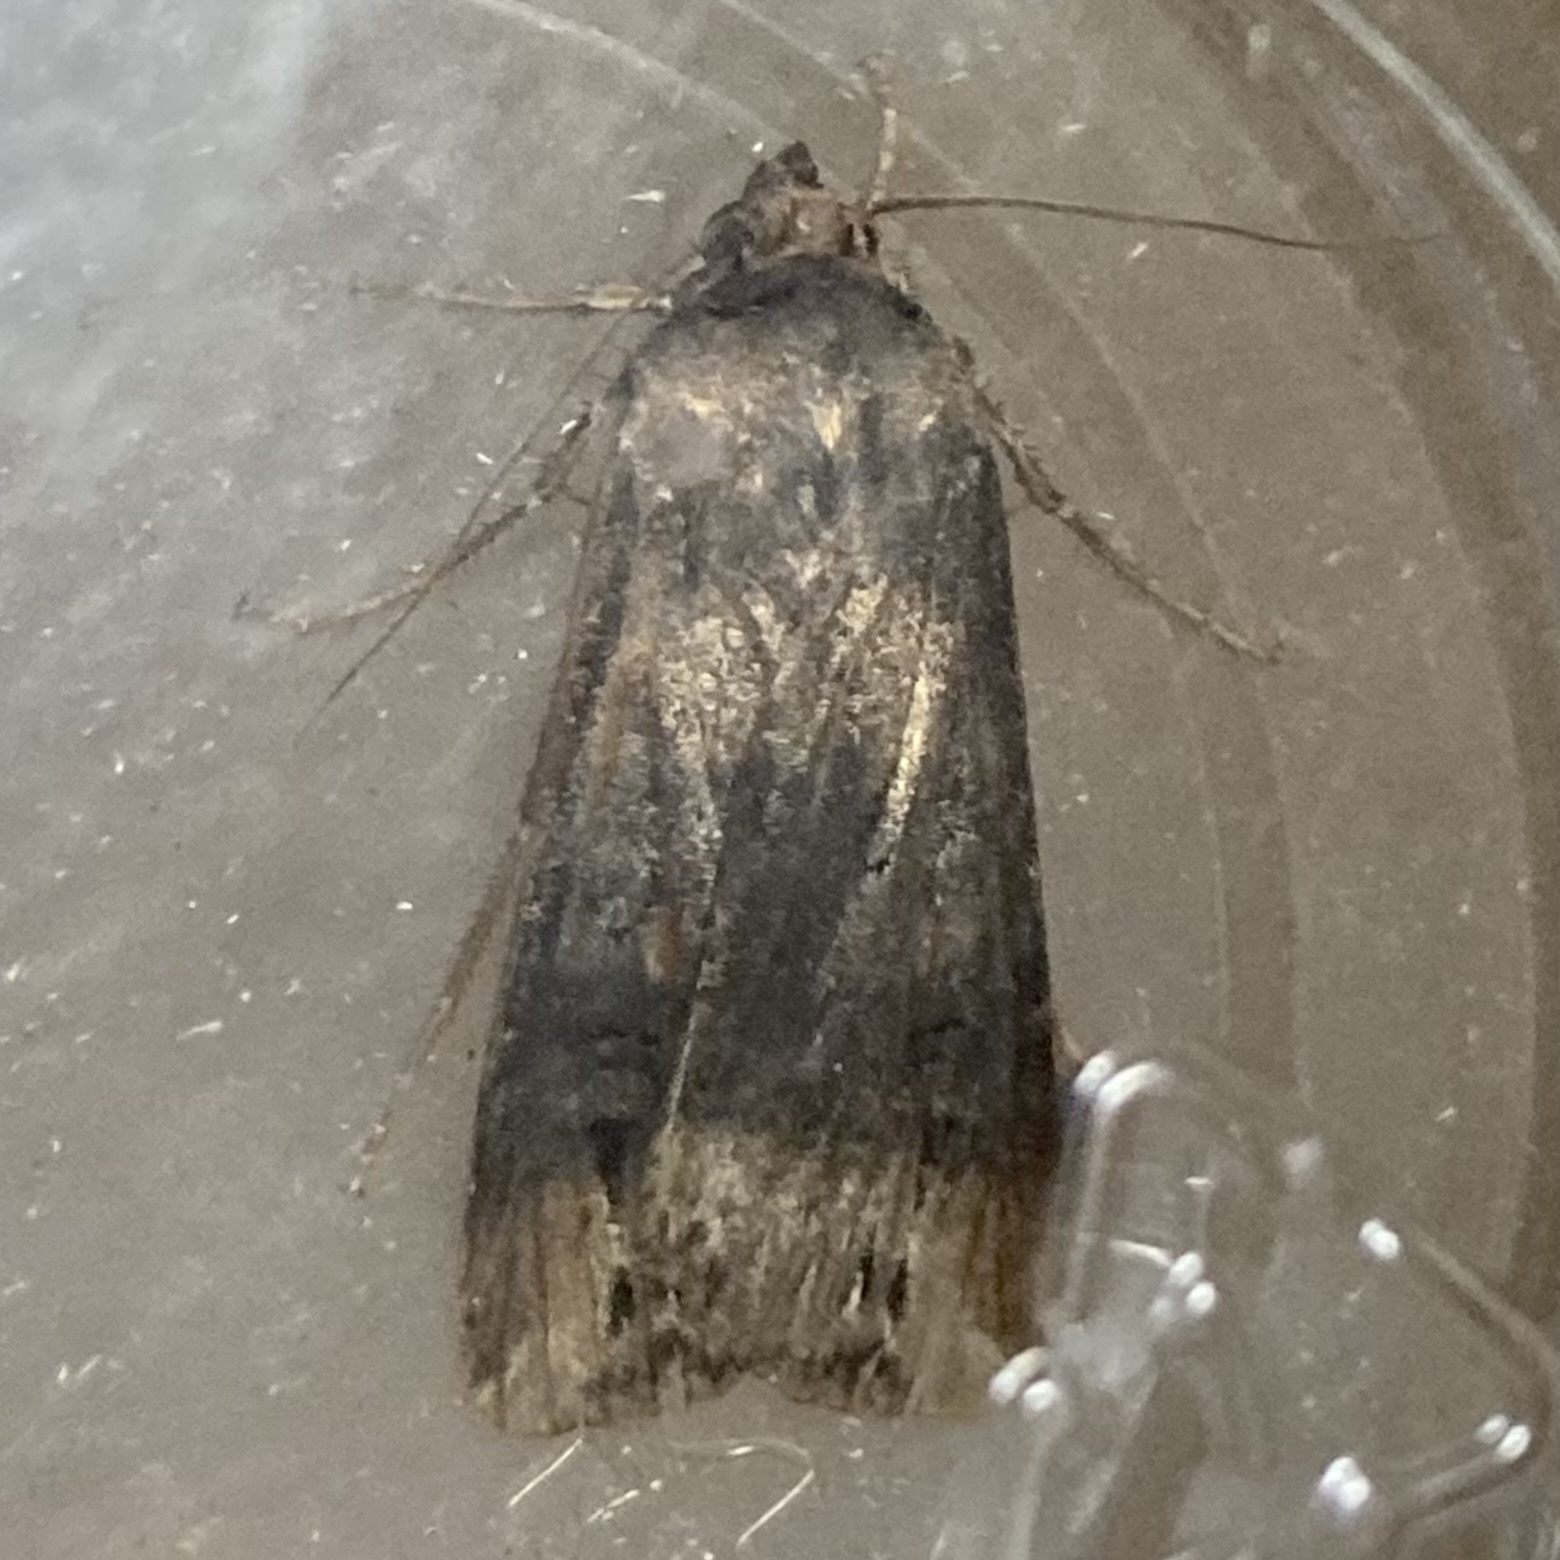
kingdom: Animalia
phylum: Arthropoda
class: Insecta
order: Lepidoptera
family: Noctuidae
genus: Agrotis
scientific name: Agrotis ipsilon
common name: Dark sword-grass
